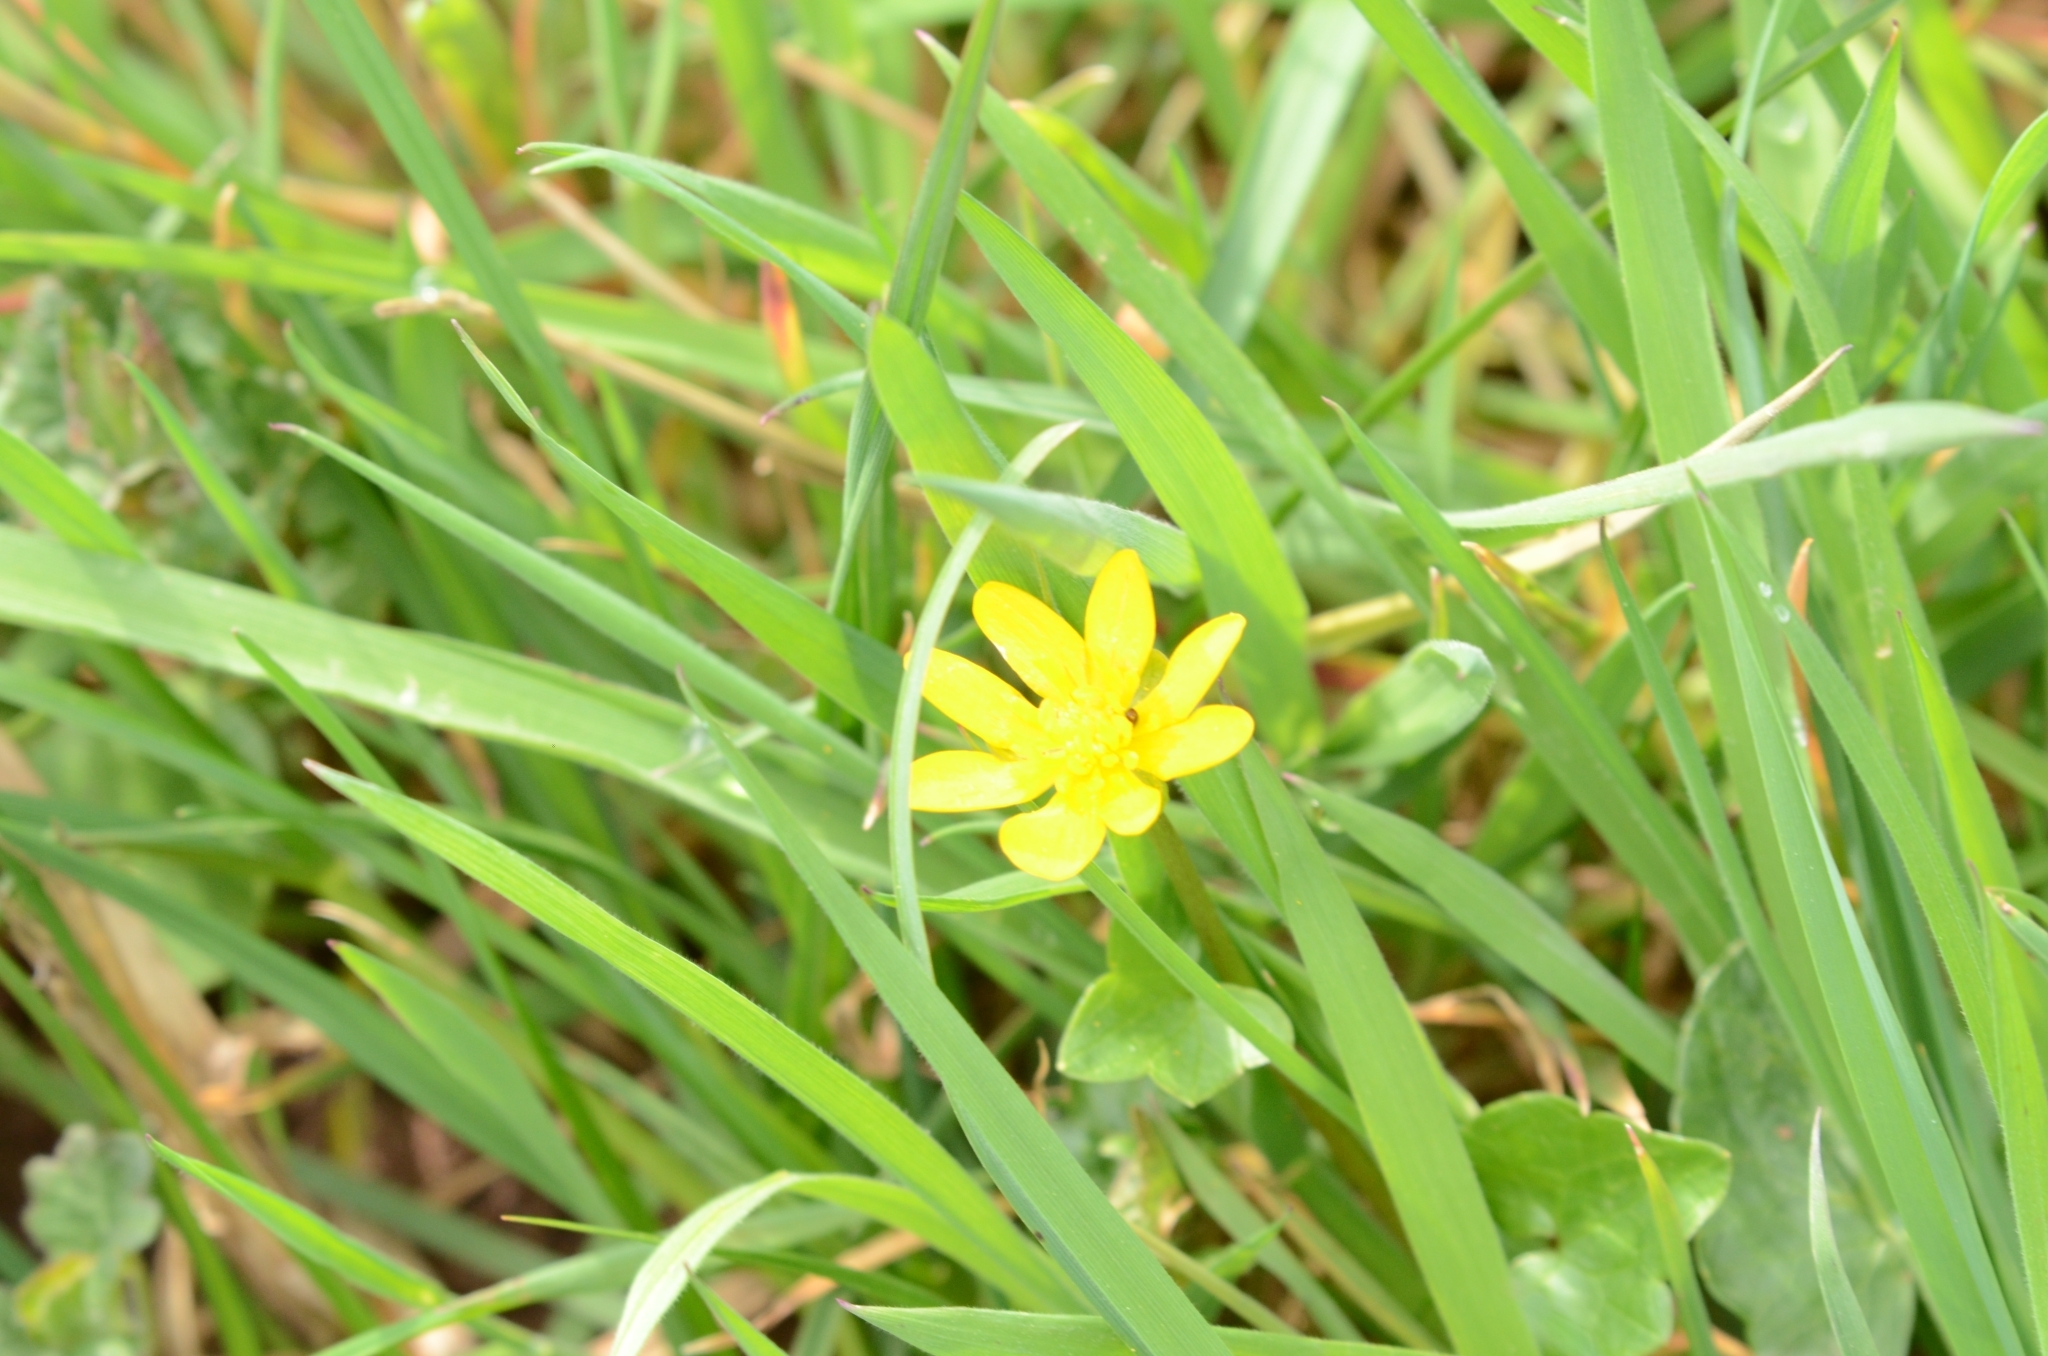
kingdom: Plantae
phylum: Tracheophyta
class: Magnoliopsida
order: Ranunculales
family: Ranunculaceae
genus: Ficaria
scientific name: Ficaria verna
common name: Lesser celandine
